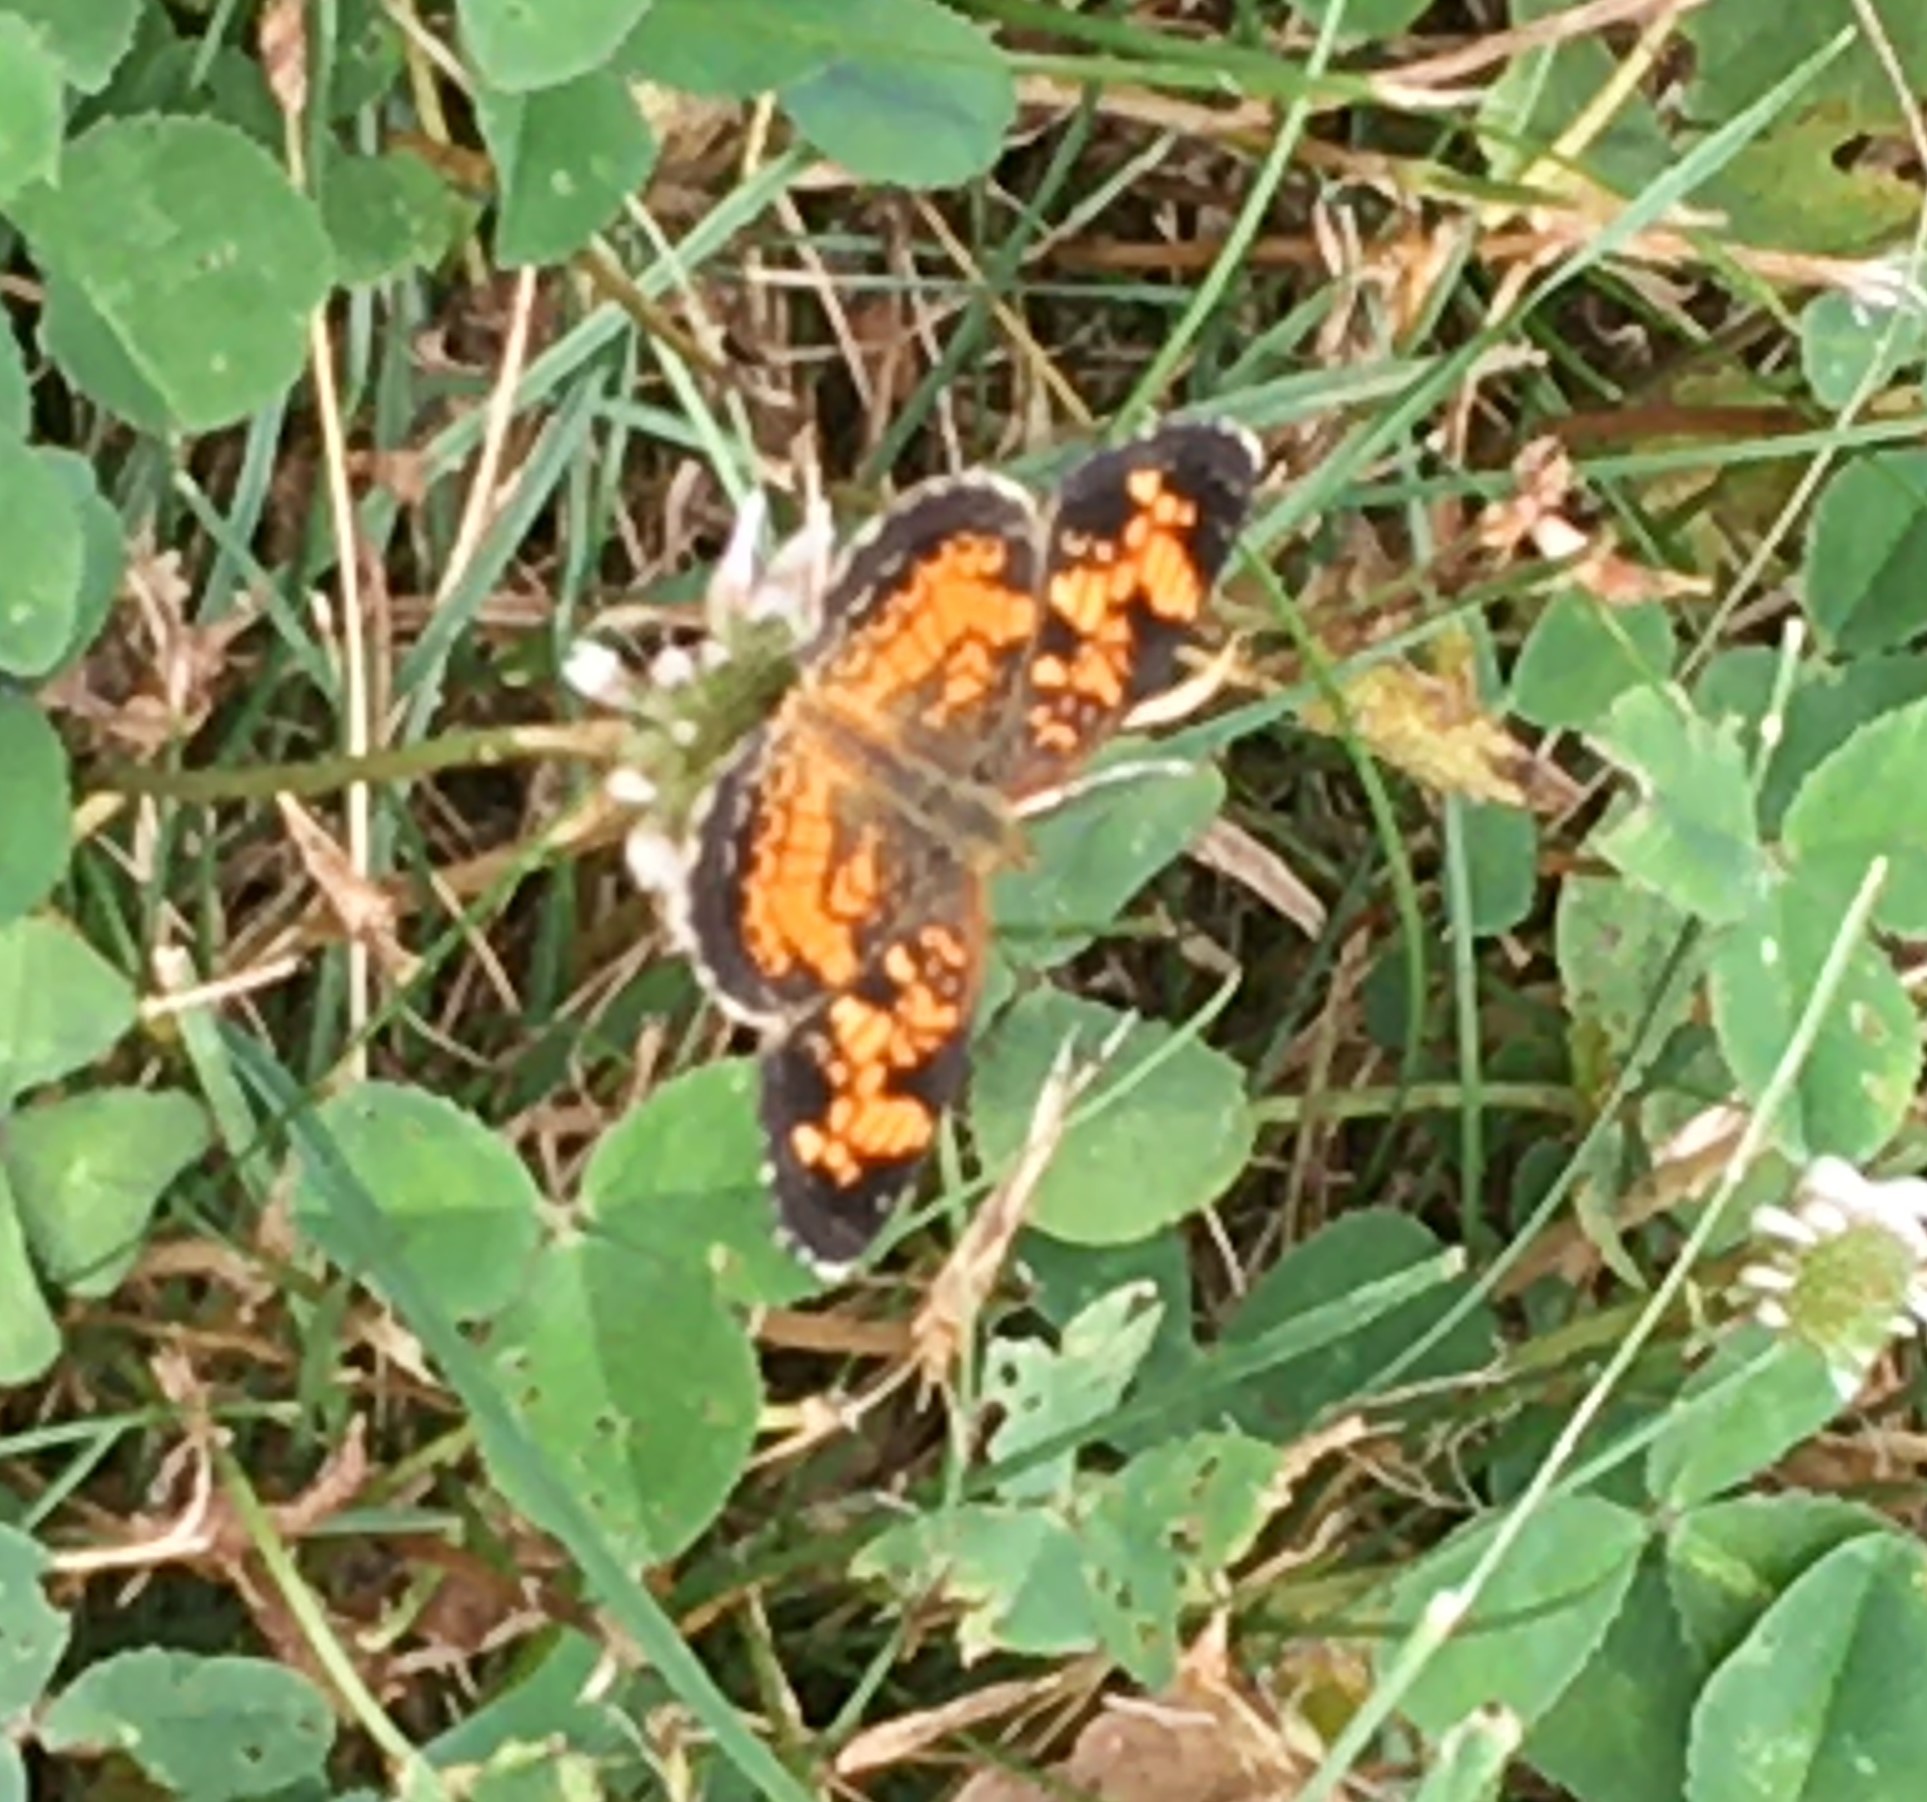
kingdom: Animalia
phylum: Arthropoda
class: Insecta
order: Lepidoptera
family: Nymphalidae
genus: Phyciodes
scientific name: Phyciodes tharos
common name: Pearl crescent
